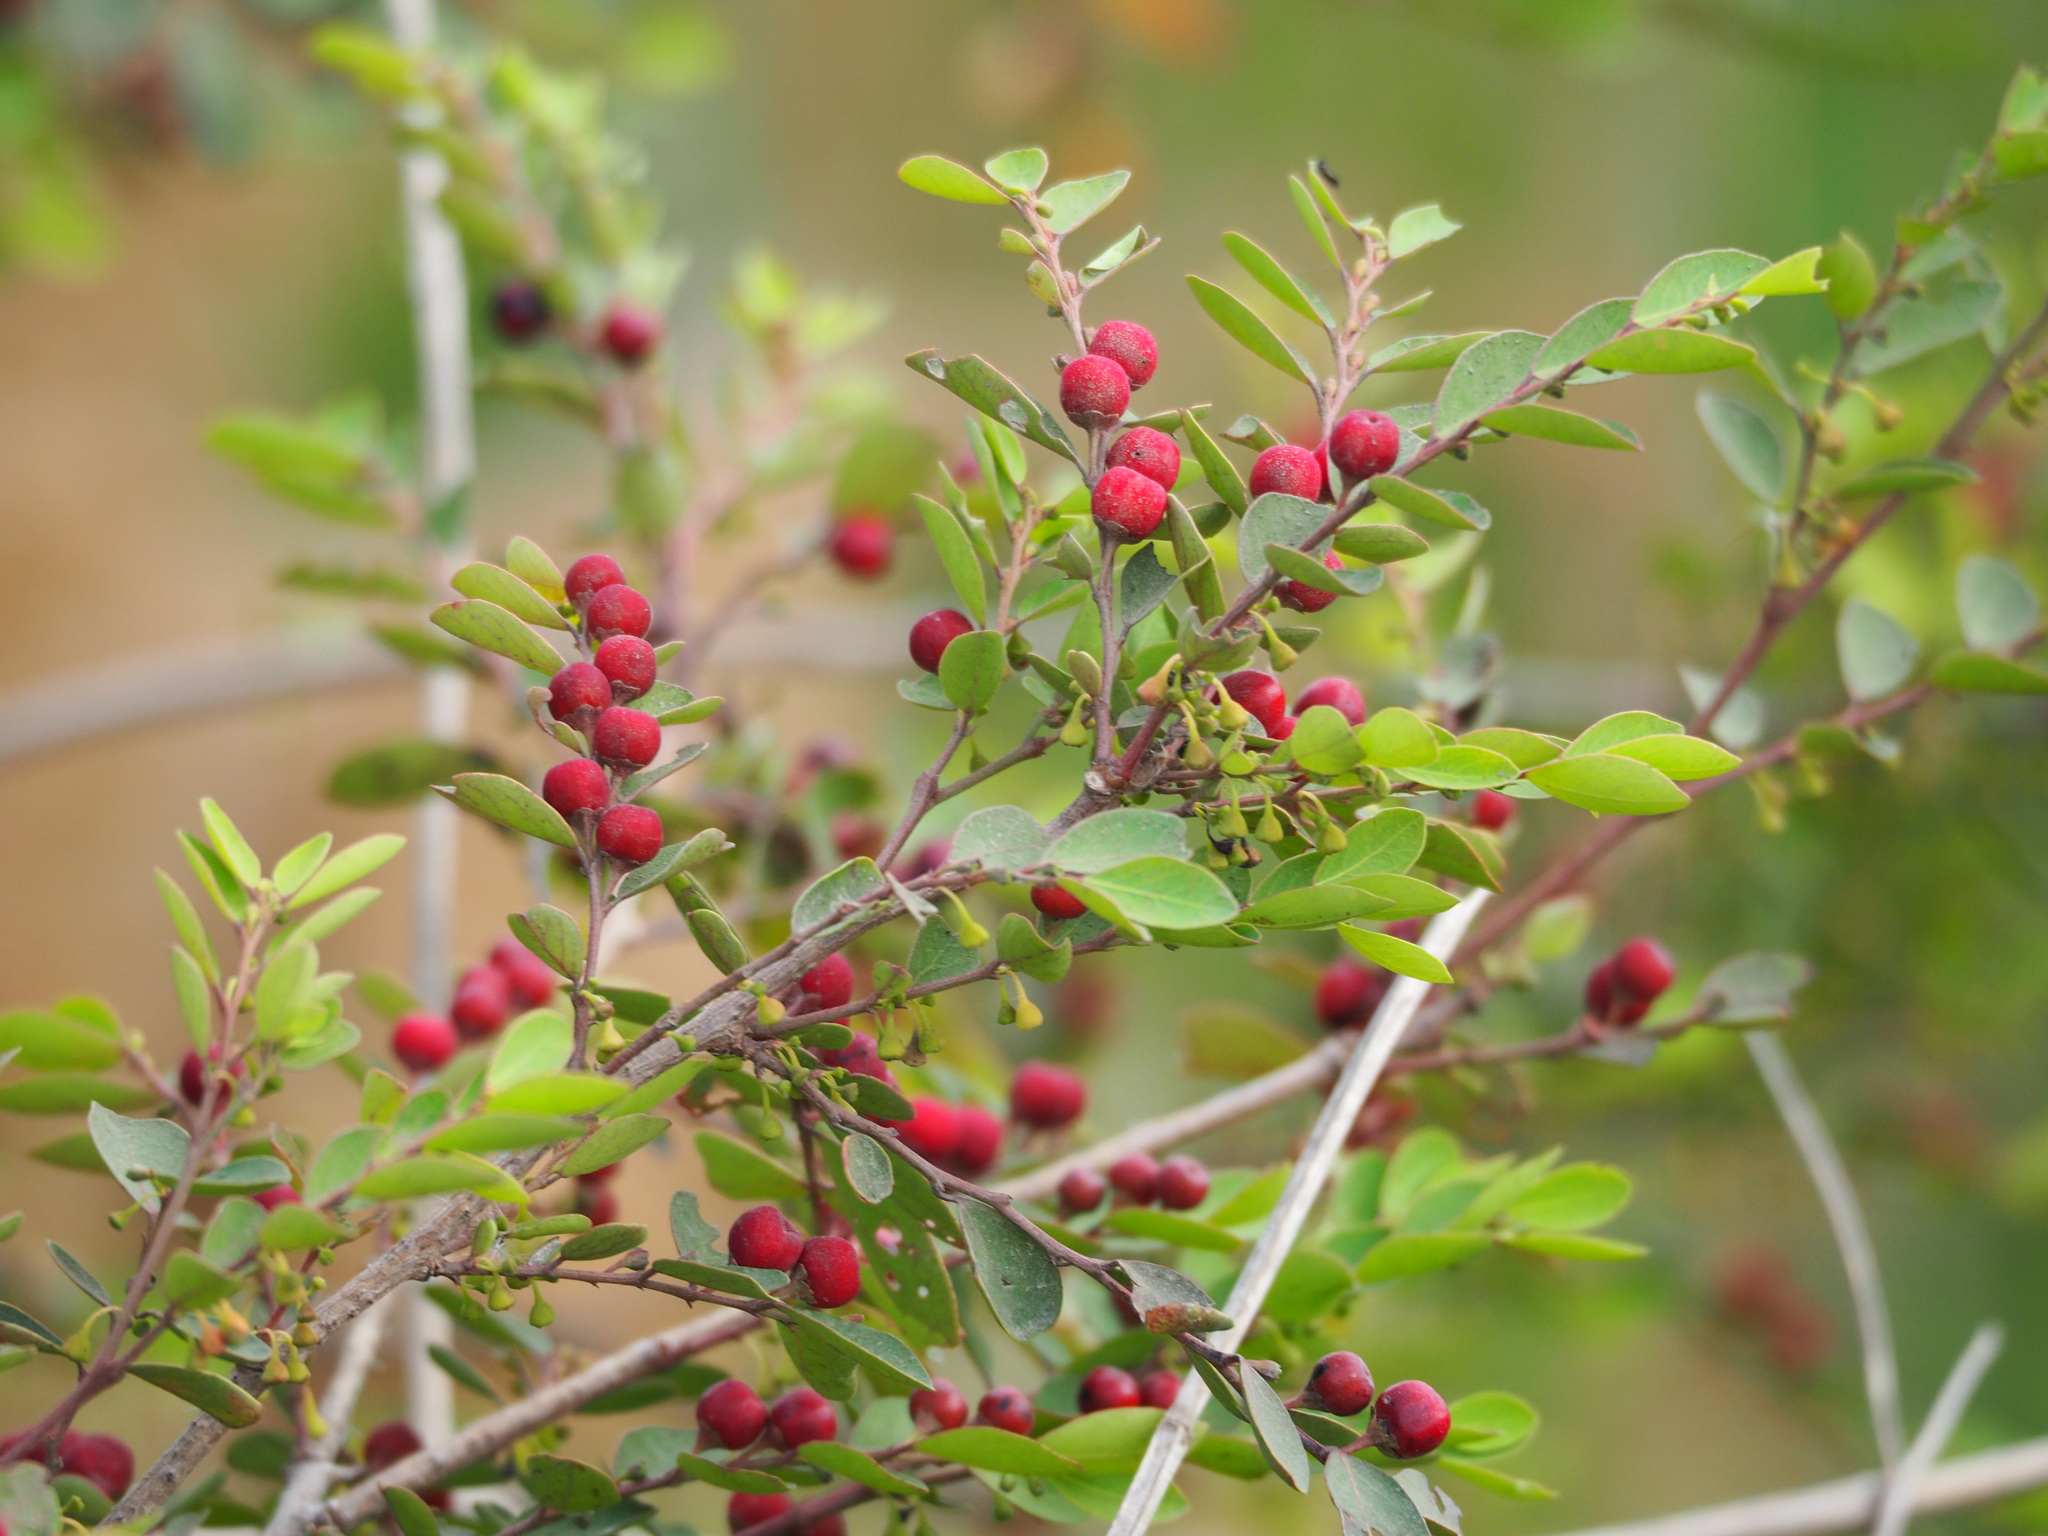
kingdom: Plantae
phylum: Tracheophyta
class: Magnoliopsida
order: Malpighiales
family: Phyllanthaceae
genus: Breynia
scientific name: Breynia vitis-idaea
